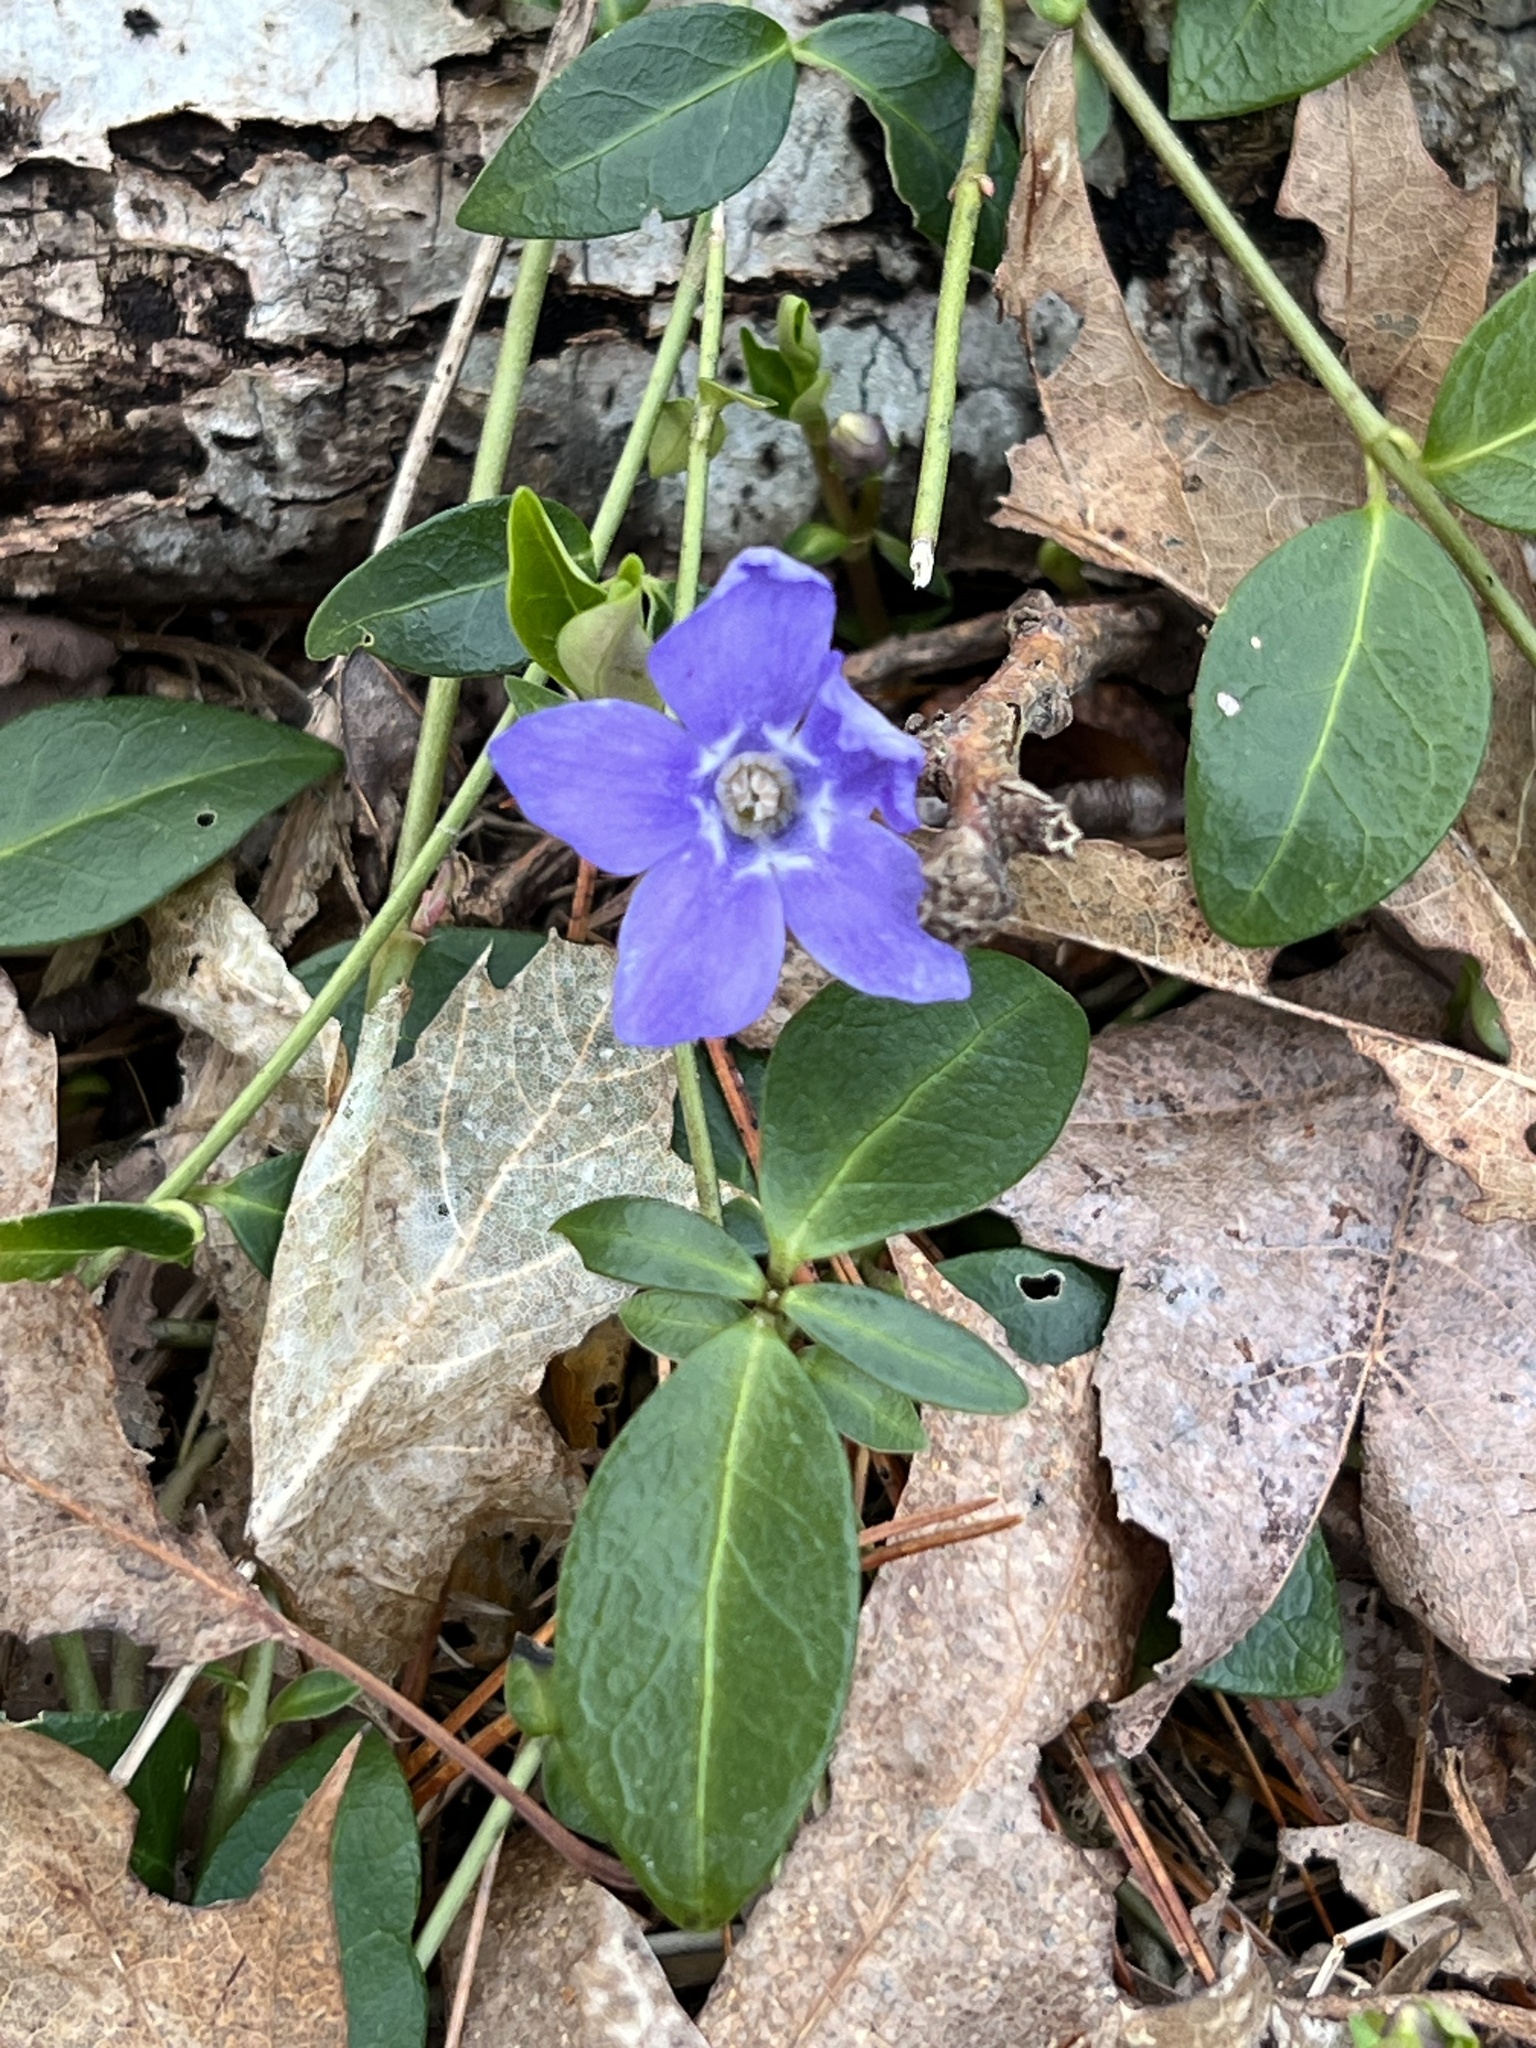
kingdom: Plantae
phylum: Tracheophyta
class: Magnoliopsida
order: Gentianales
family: Apocynaceae
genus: Vinca
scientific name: Vinca minor
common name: Lesser periwinkle
